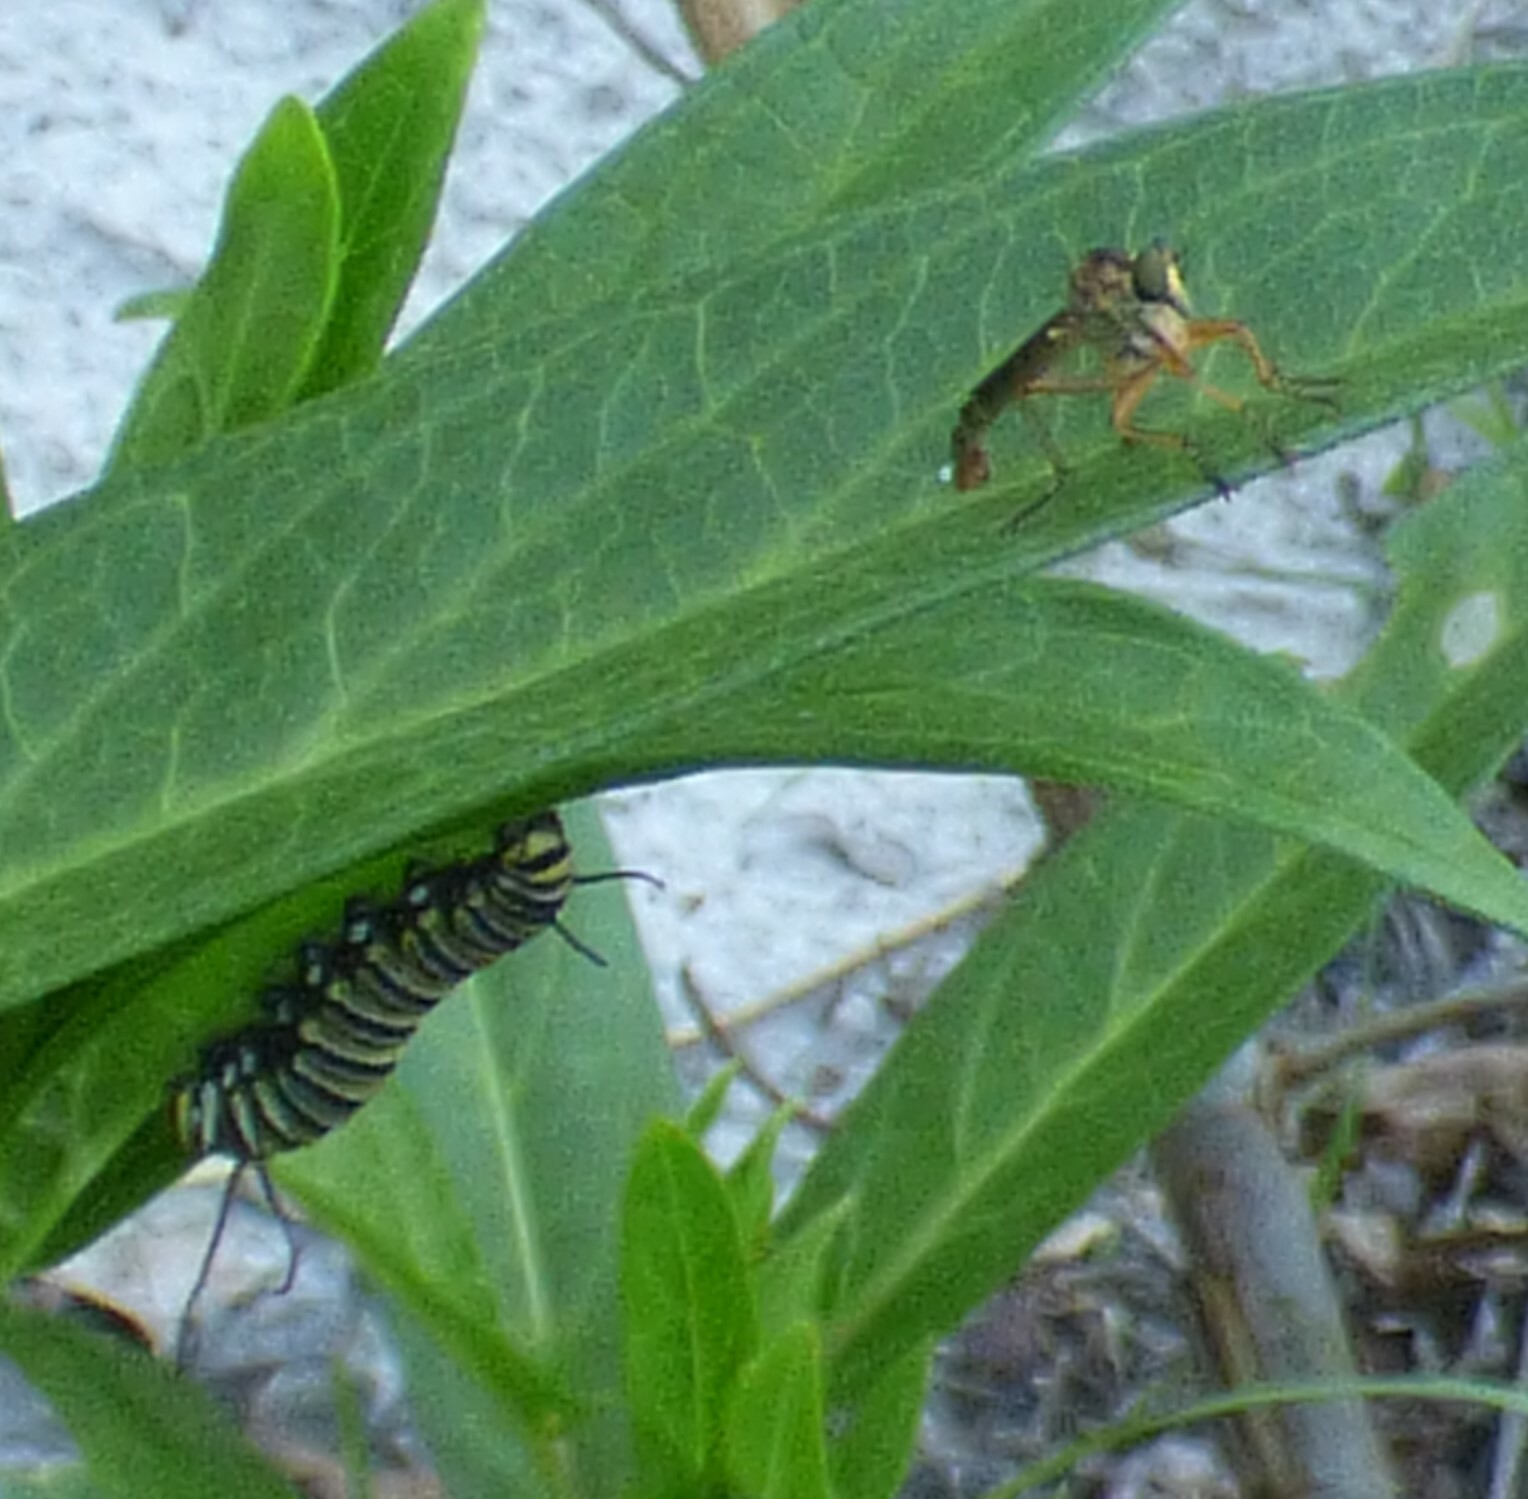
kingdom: Animalia
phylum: Arthropoda
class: Insecta
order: Diptera
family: Asilidae
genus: Polacantha
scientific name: Polacantha gracilis
